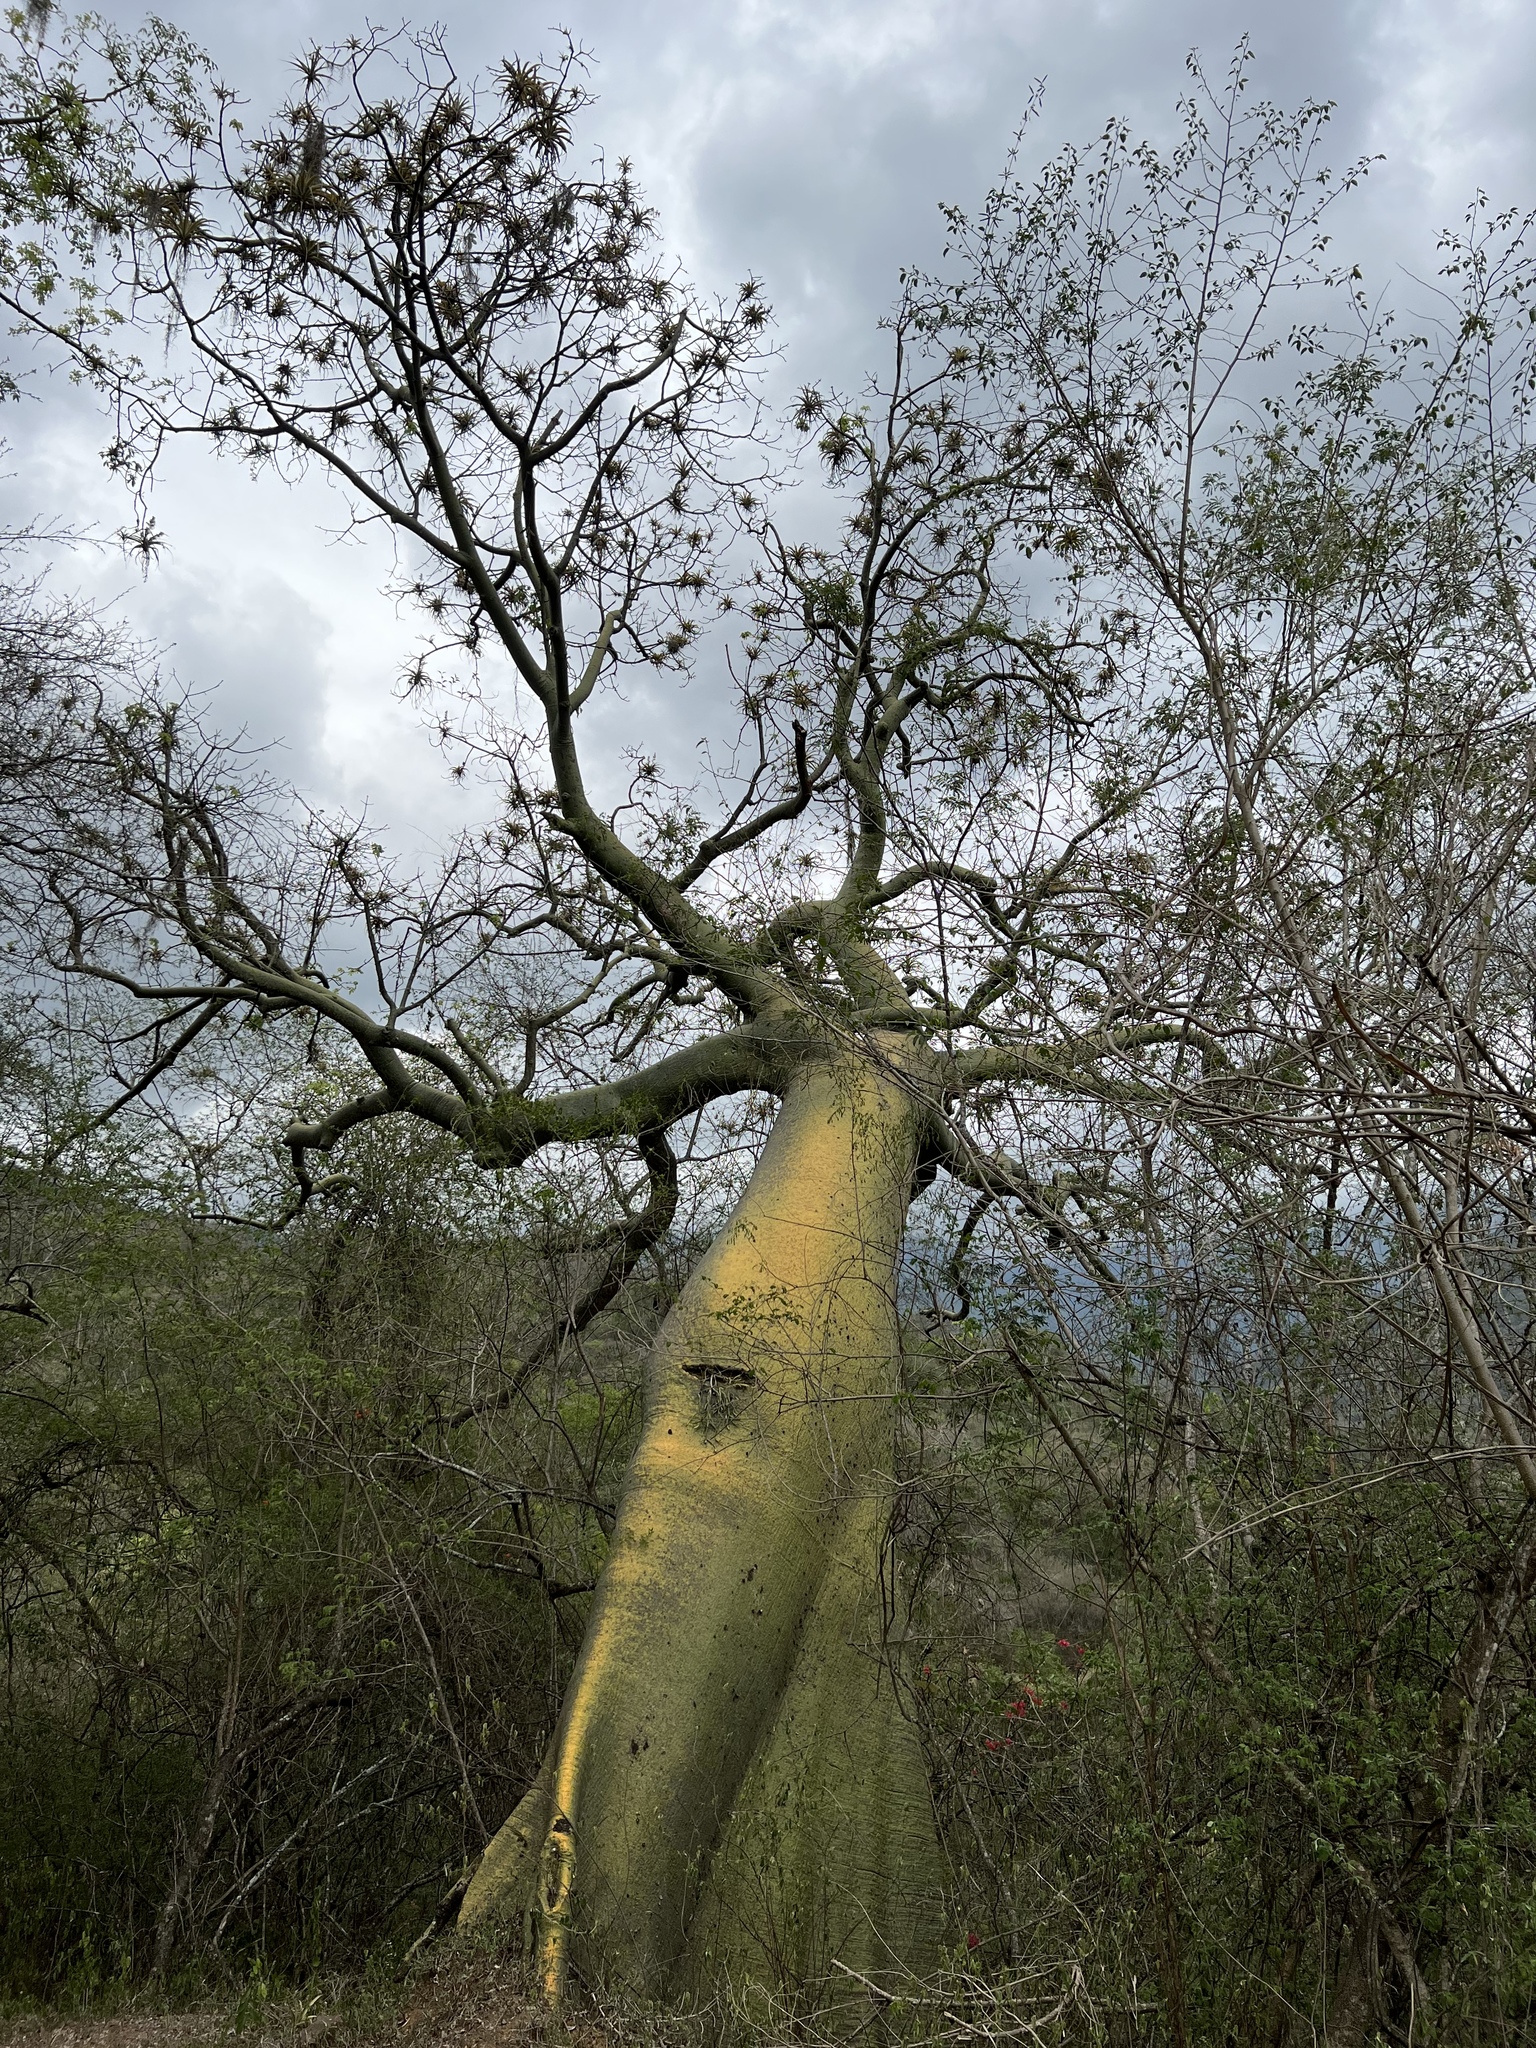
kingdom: Plantae
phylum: Tracheophyta
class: Magnoliopsida
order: Malvales
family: Malvaceae
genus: Ceiba
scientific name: Ceiba trischistandra
